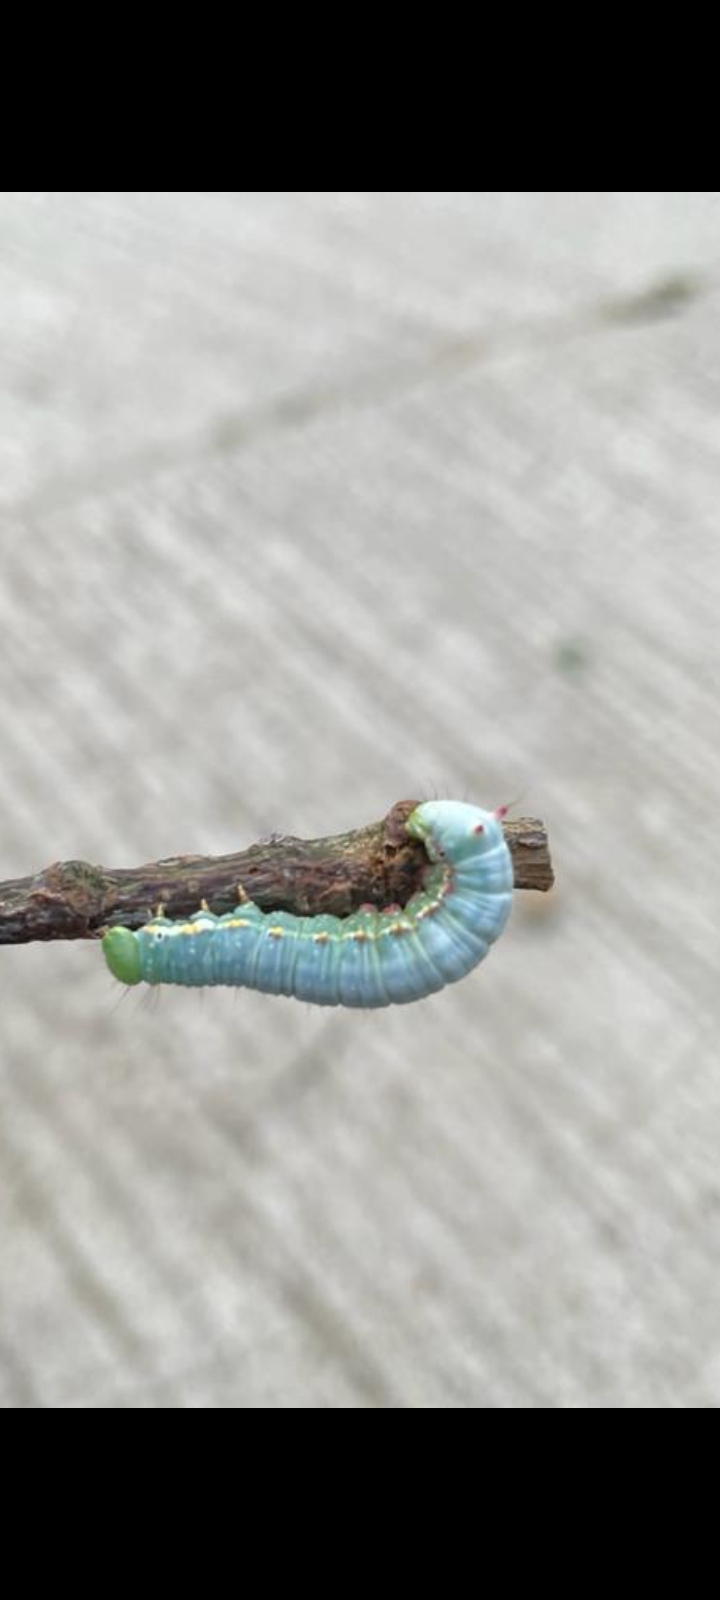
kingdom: Animalia
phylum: Arthropoda
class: Insecta
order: Lepidoptera
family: Notodontidae
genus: Ptilodon
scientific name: Ptilodon capucina
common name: Coxcomb prominent
